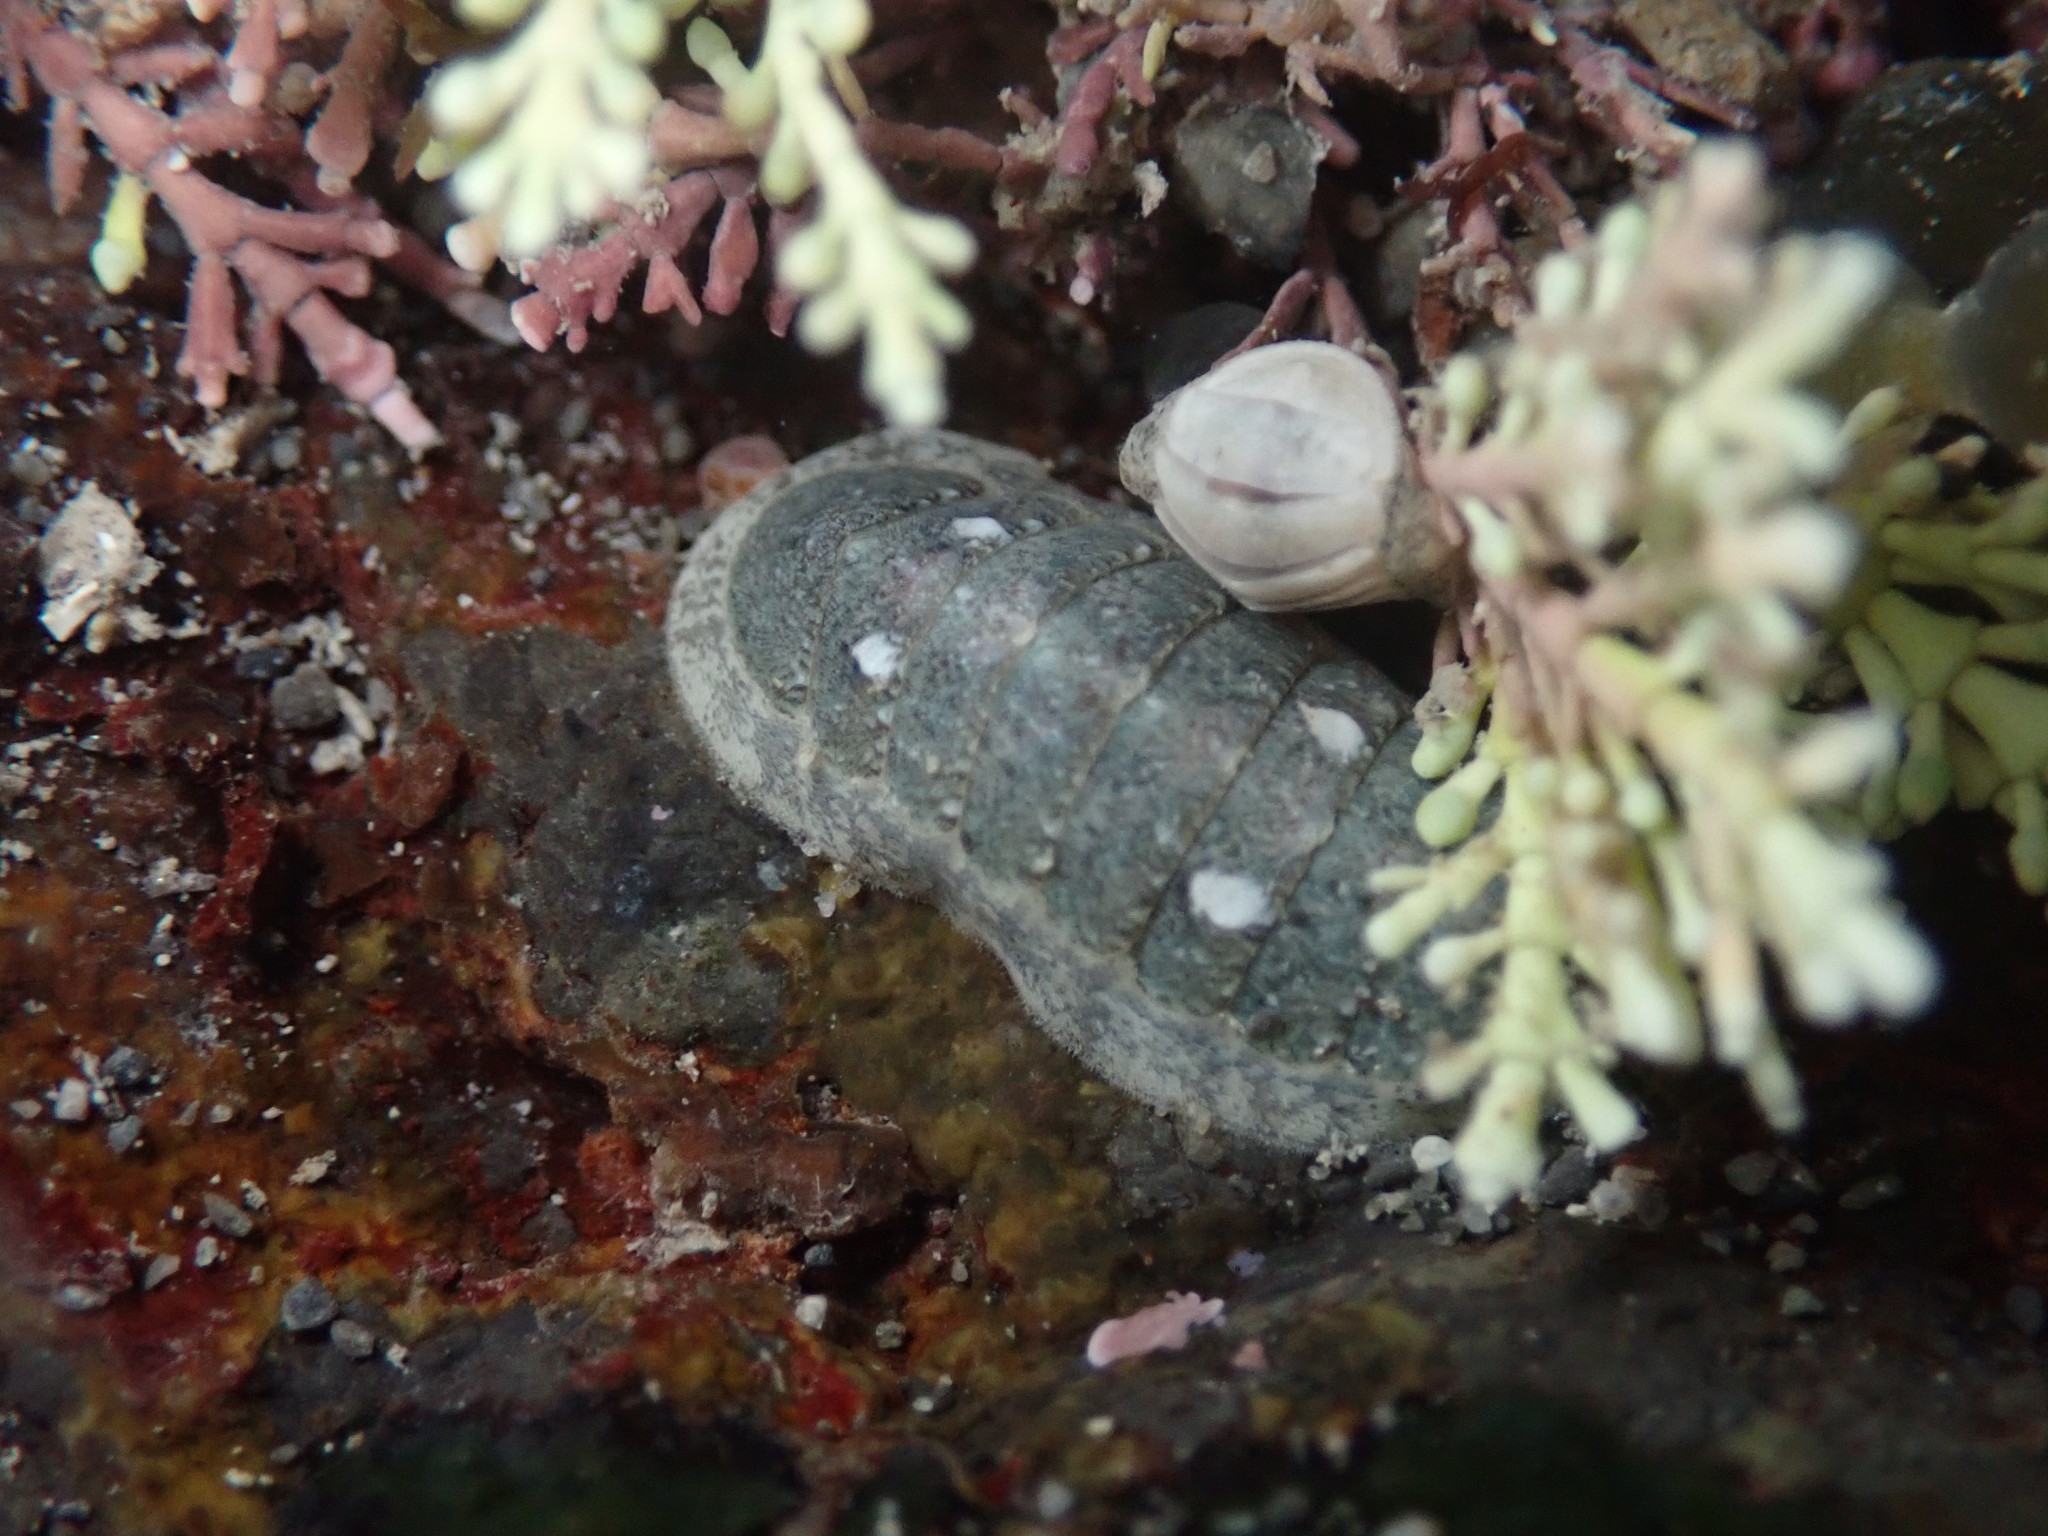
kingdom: Animalia
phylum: Mollusca
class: Polyplacophora
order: Chitonida
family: Ischnochitonidae
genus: Ischnochiton
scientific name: Ischnochiton maorianus
